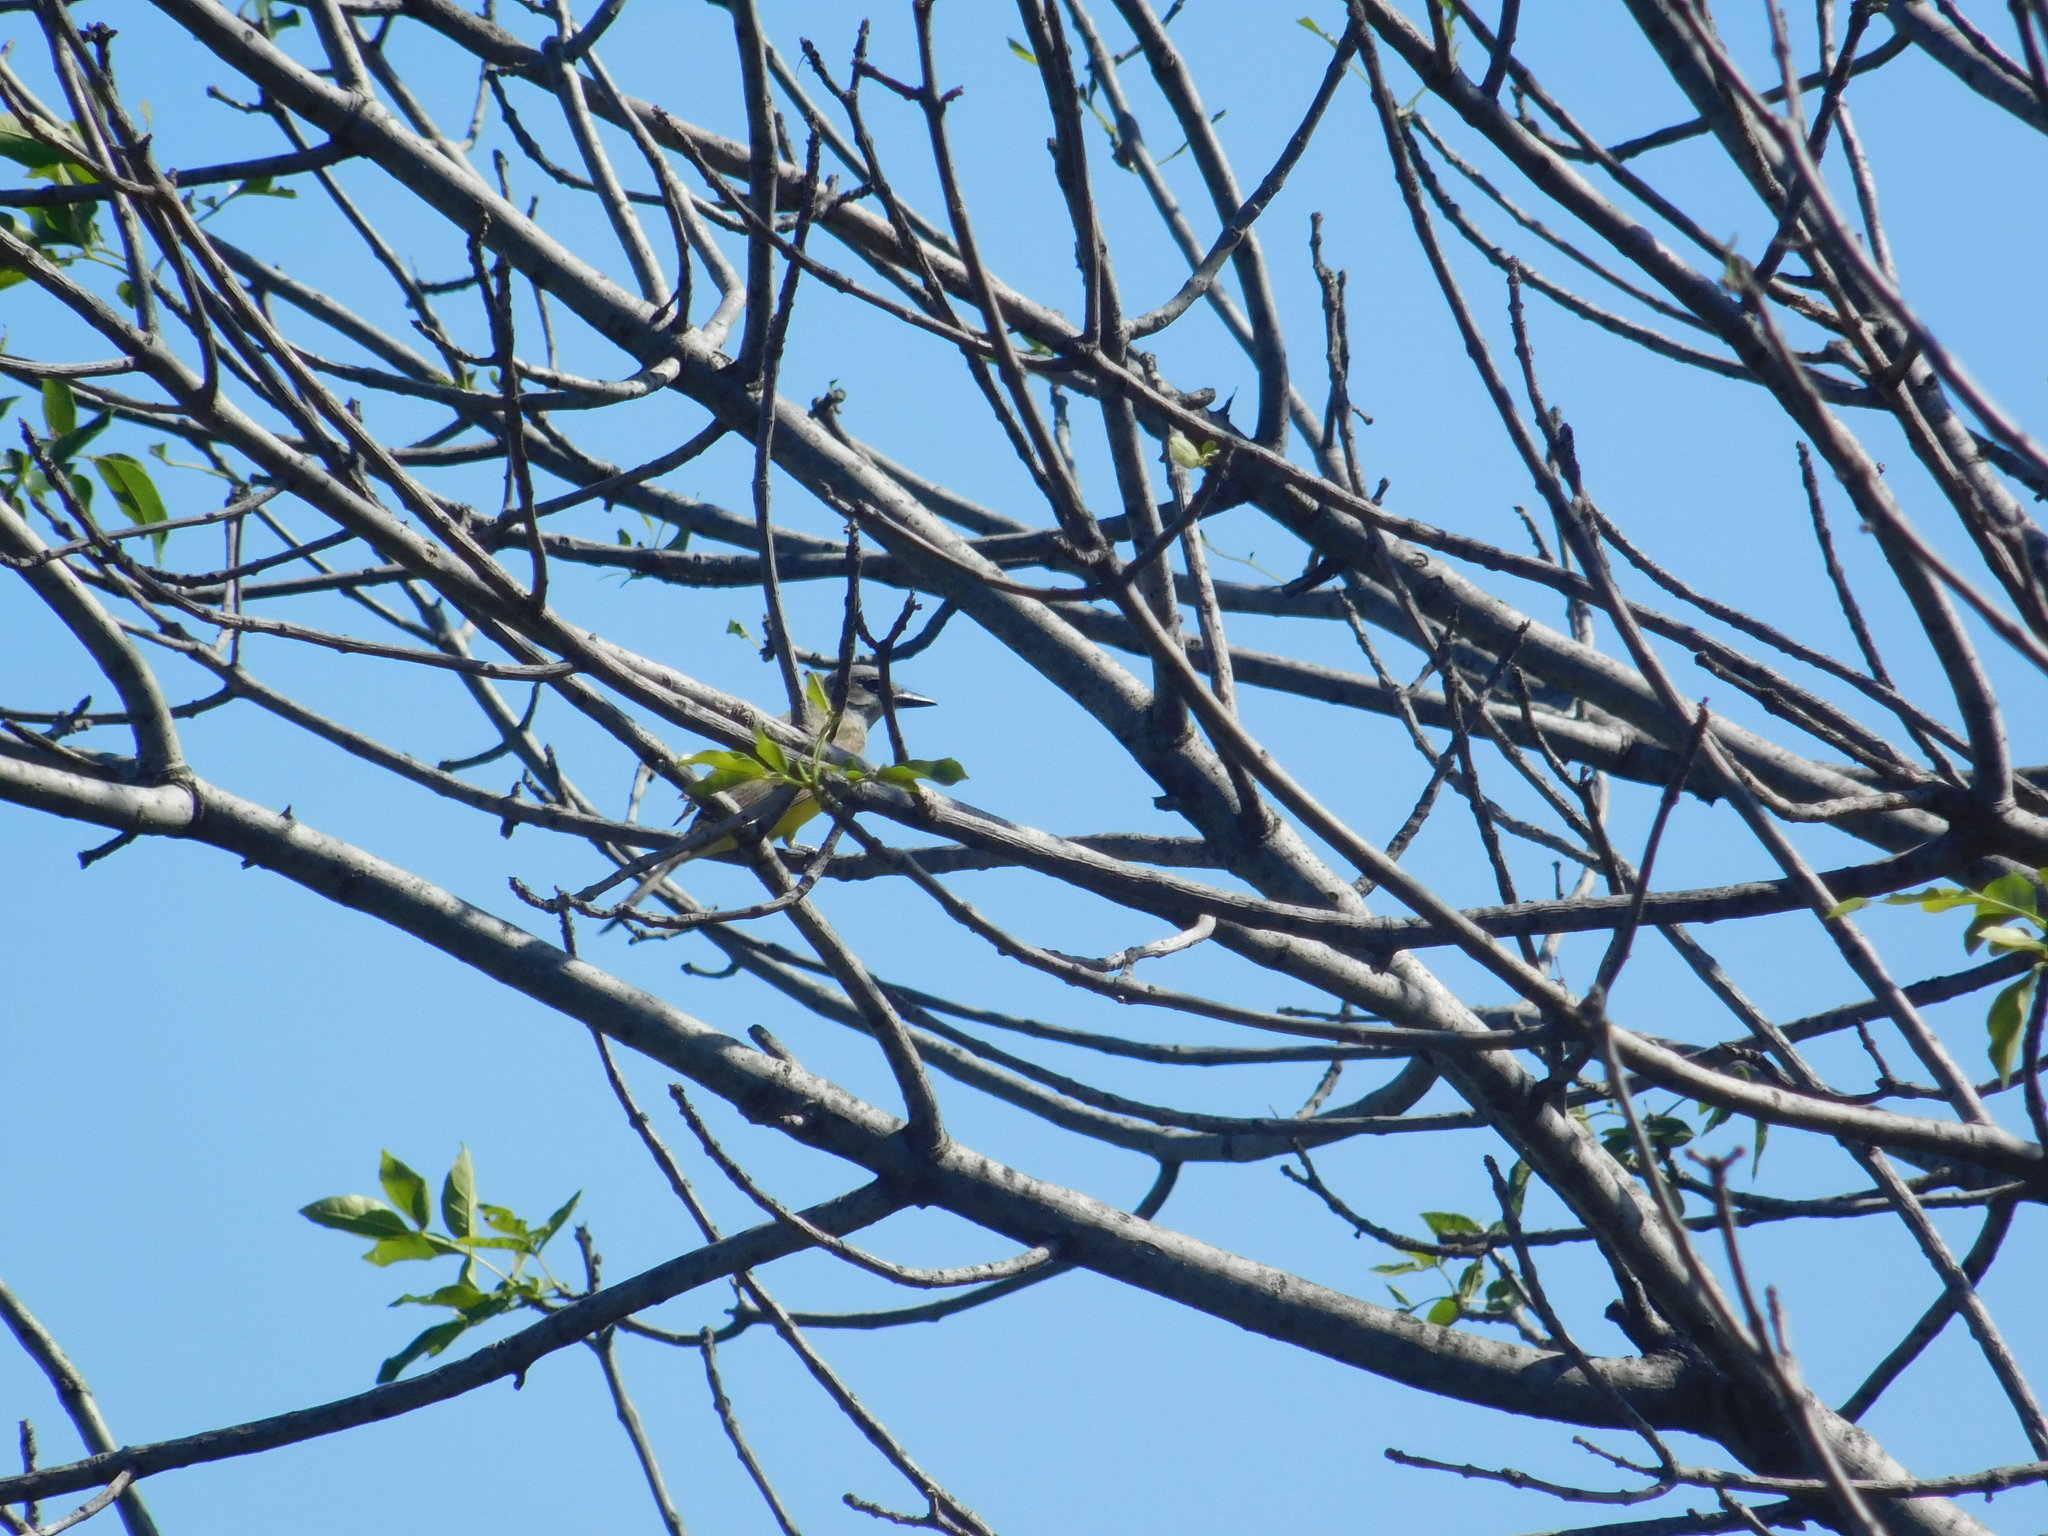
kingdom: Animalia
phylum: Chordata
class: Aves
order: Passeriformes
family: Tyrannidae
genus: Tyrannus
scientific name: Tyrannus melancholicus
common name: Tropical kingbird
